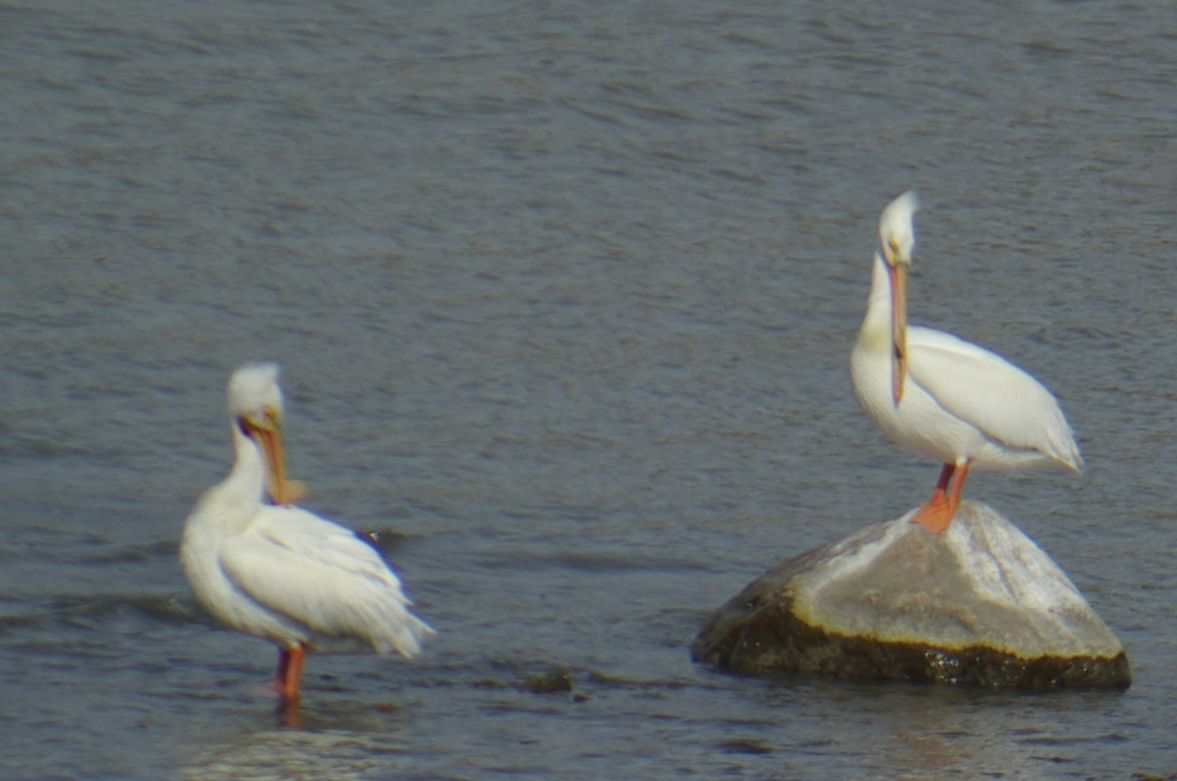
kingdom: Animalia
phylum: Chordata
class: Aves
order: Pelecaniformes
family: Pelecanidae
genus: Pelecanus
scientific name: Pelecanus erythrorhynchos
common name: American white pelican
